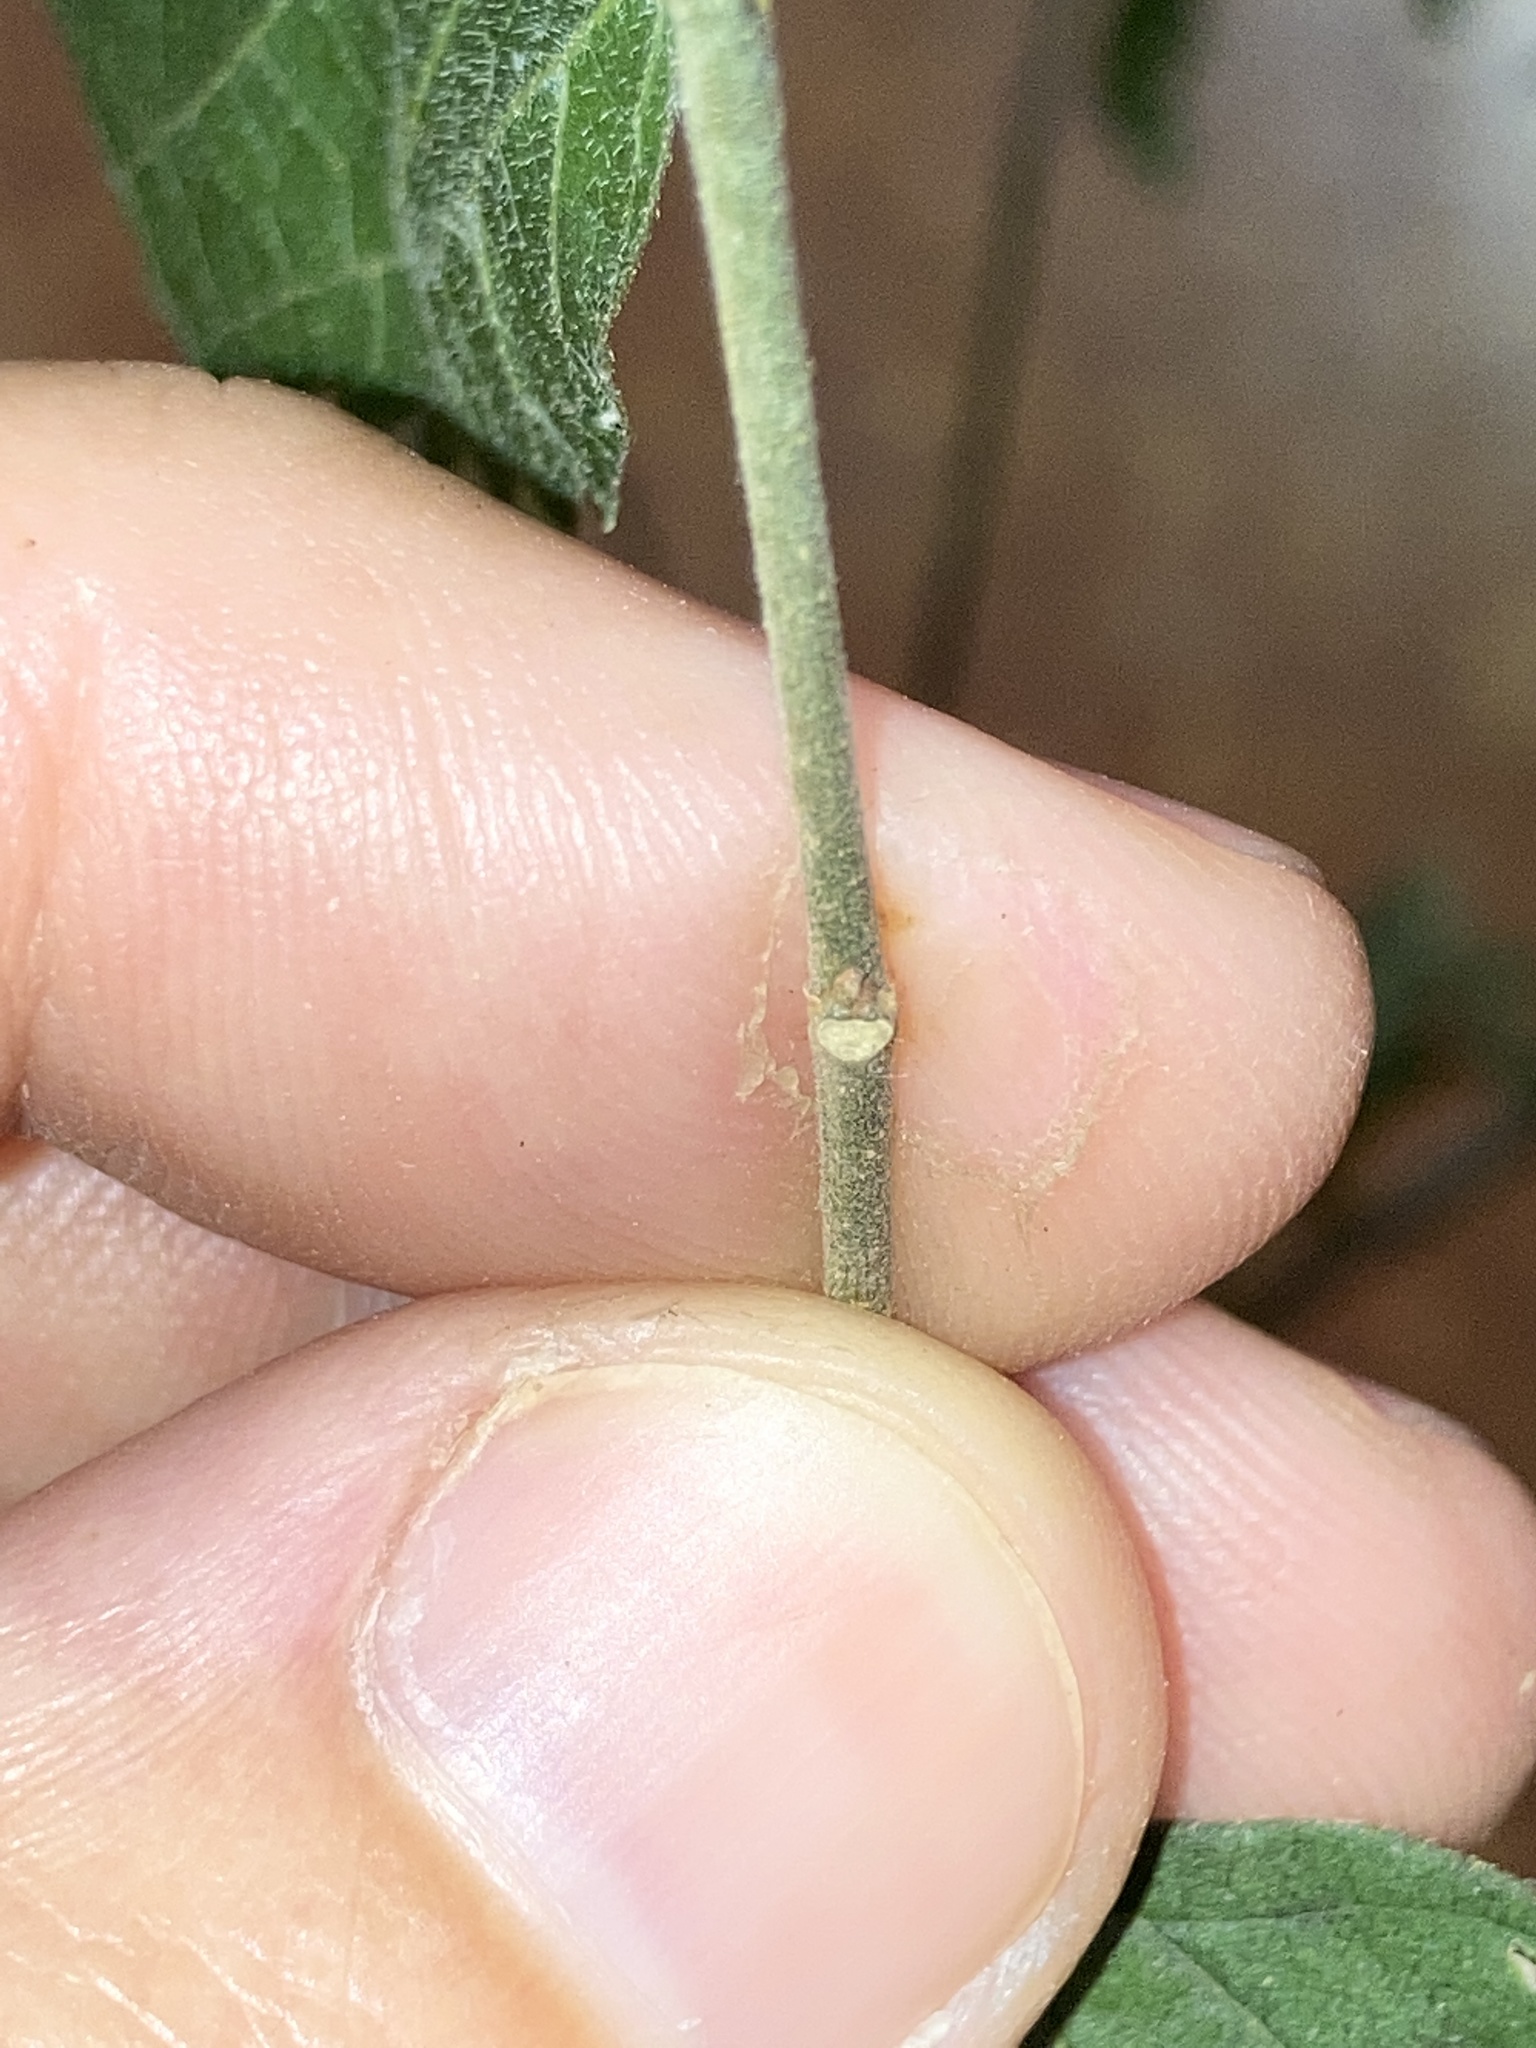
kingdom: Plantae
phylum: Tracheophyta
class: Magnoliopsida
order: Rosales
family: Cannabaceae
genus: Celtis
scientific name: Celtis laevigata
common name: Sugarberry
